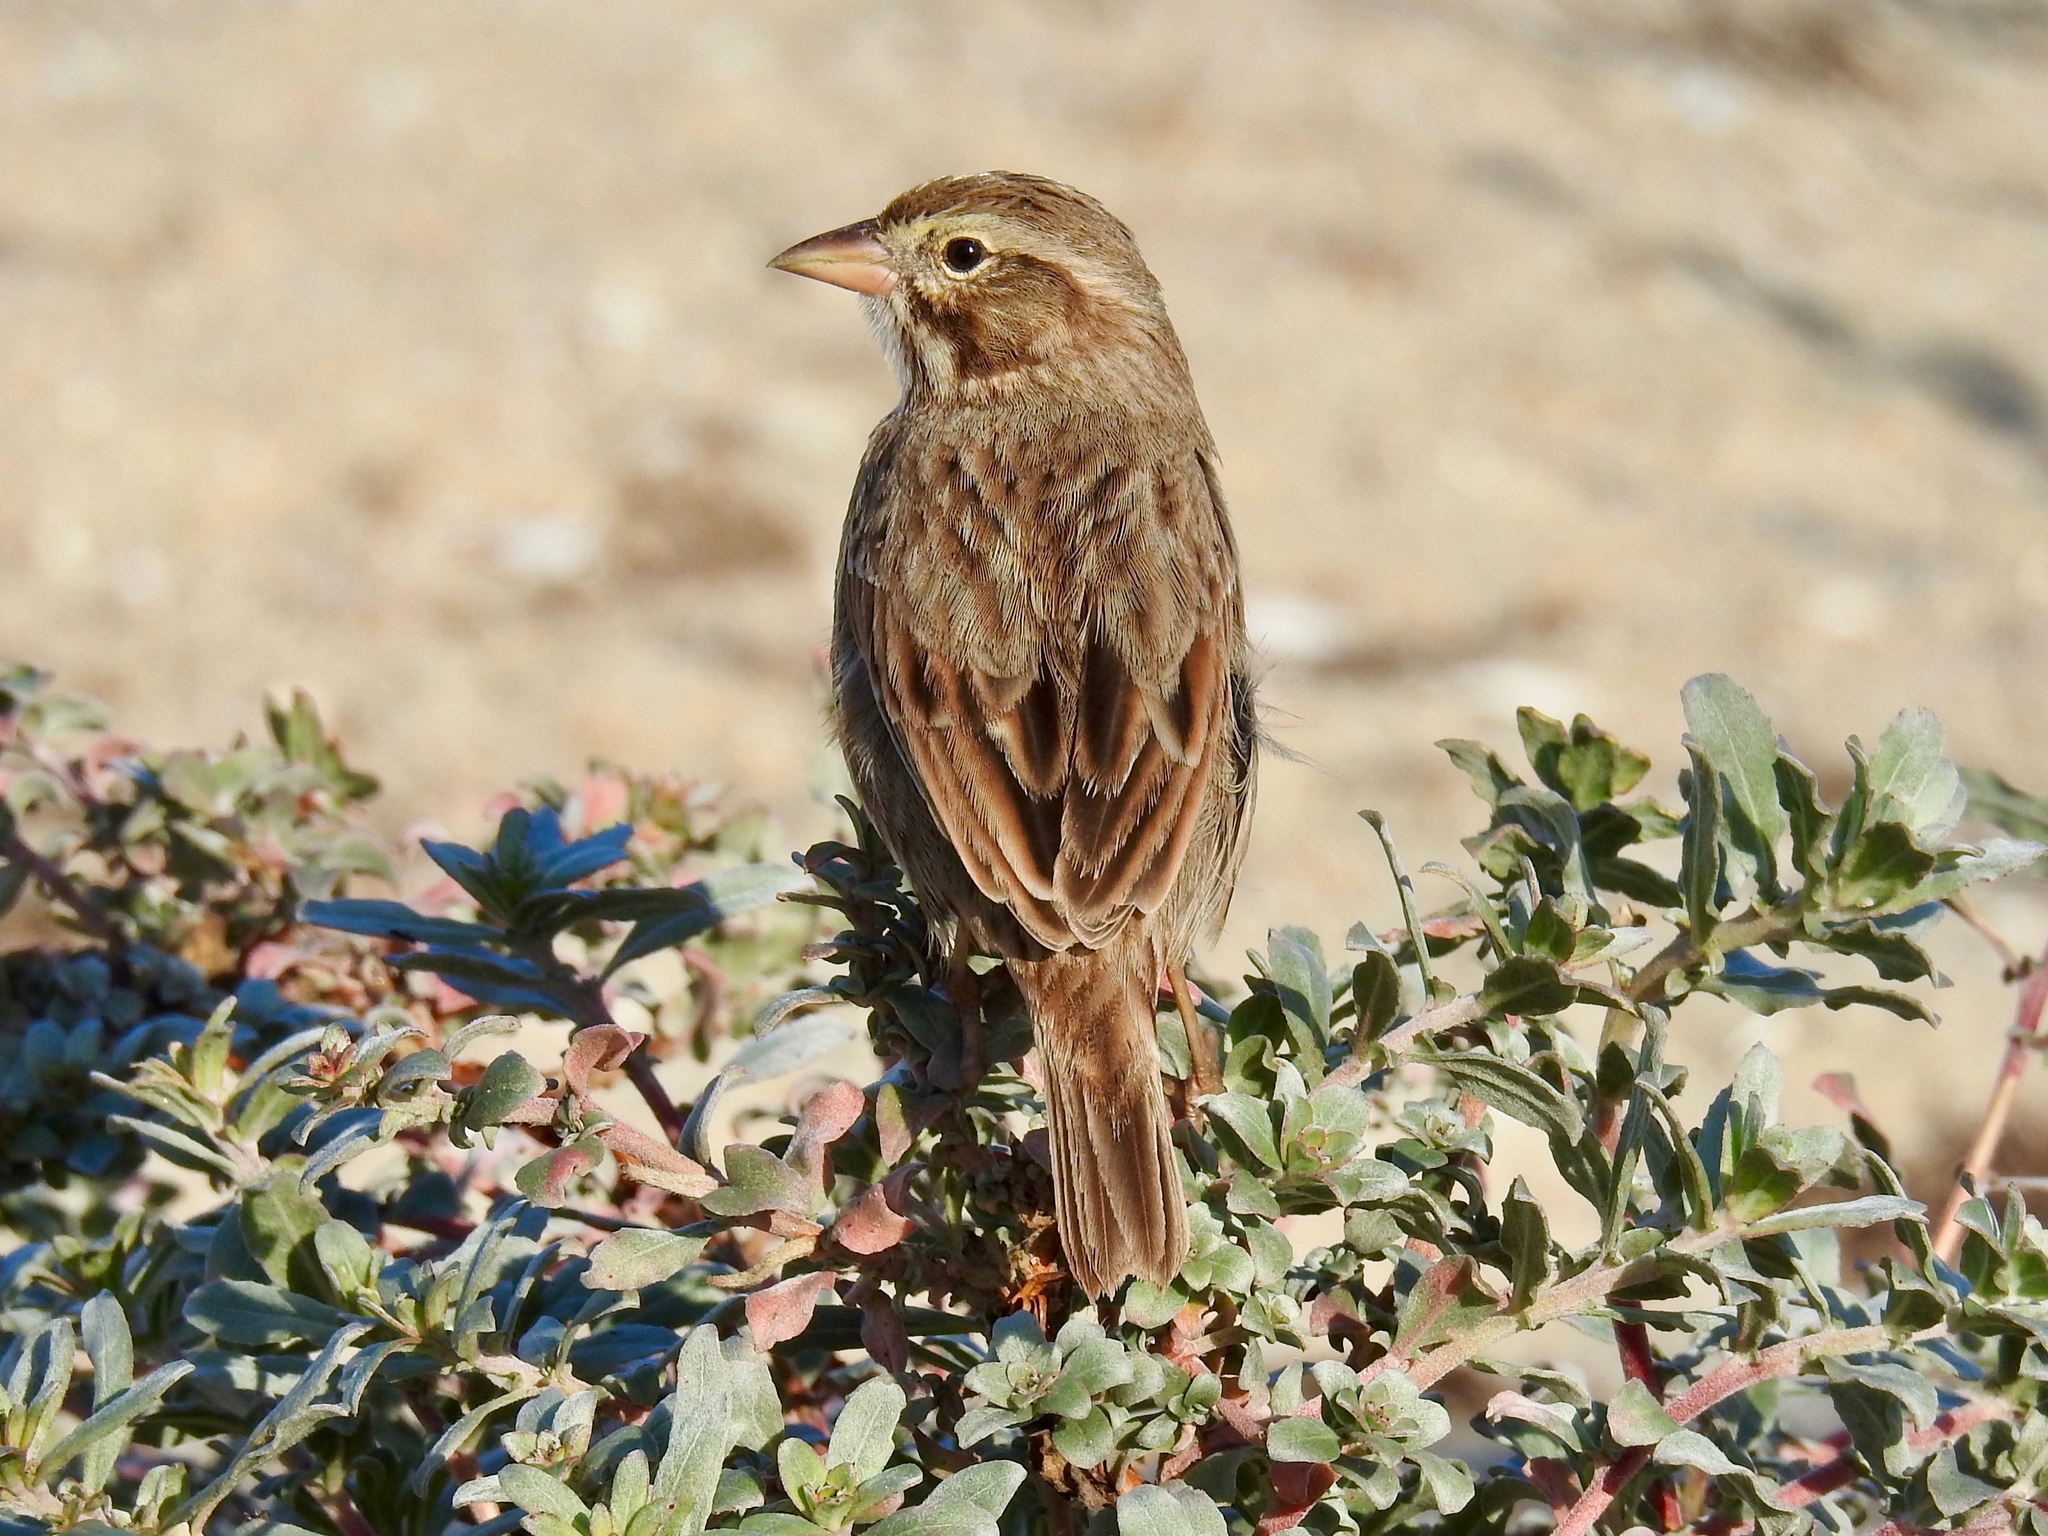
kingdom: Animalia
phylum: Chordata
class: Aves
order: Passeriformes
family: Passerellidae
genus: Passerculus
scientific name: Passerculus sandwichensis
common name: Savannah sparrow
